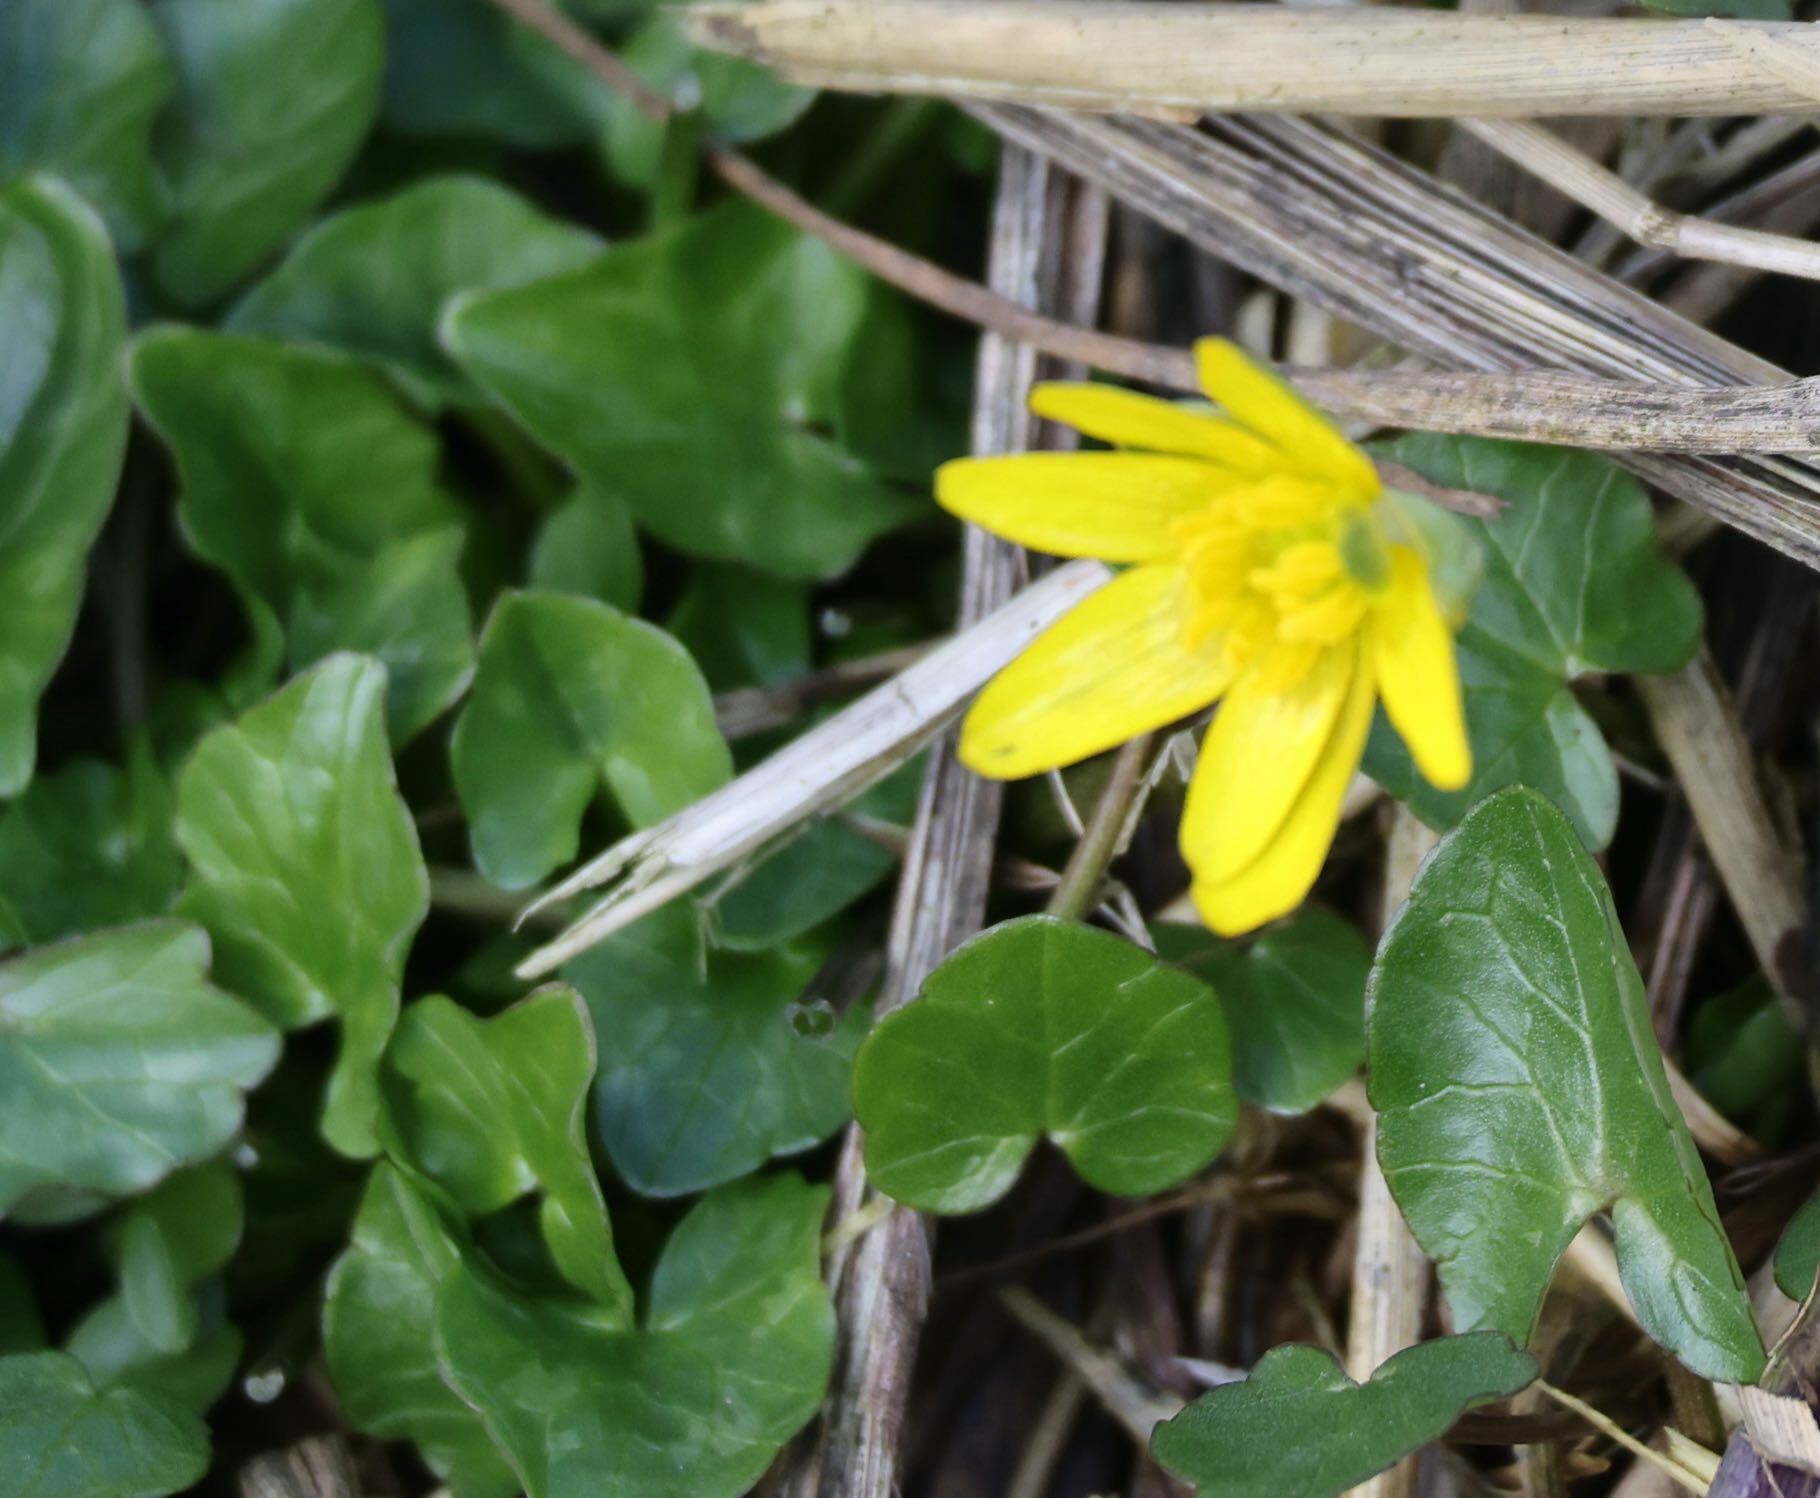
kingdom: Plantae
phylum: Tracheophyta
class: Magnoliopsida
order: Ranunculales
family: Ranunculaceae
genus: Ficaria
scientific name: Ficaria verna
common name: Lesser celandine
